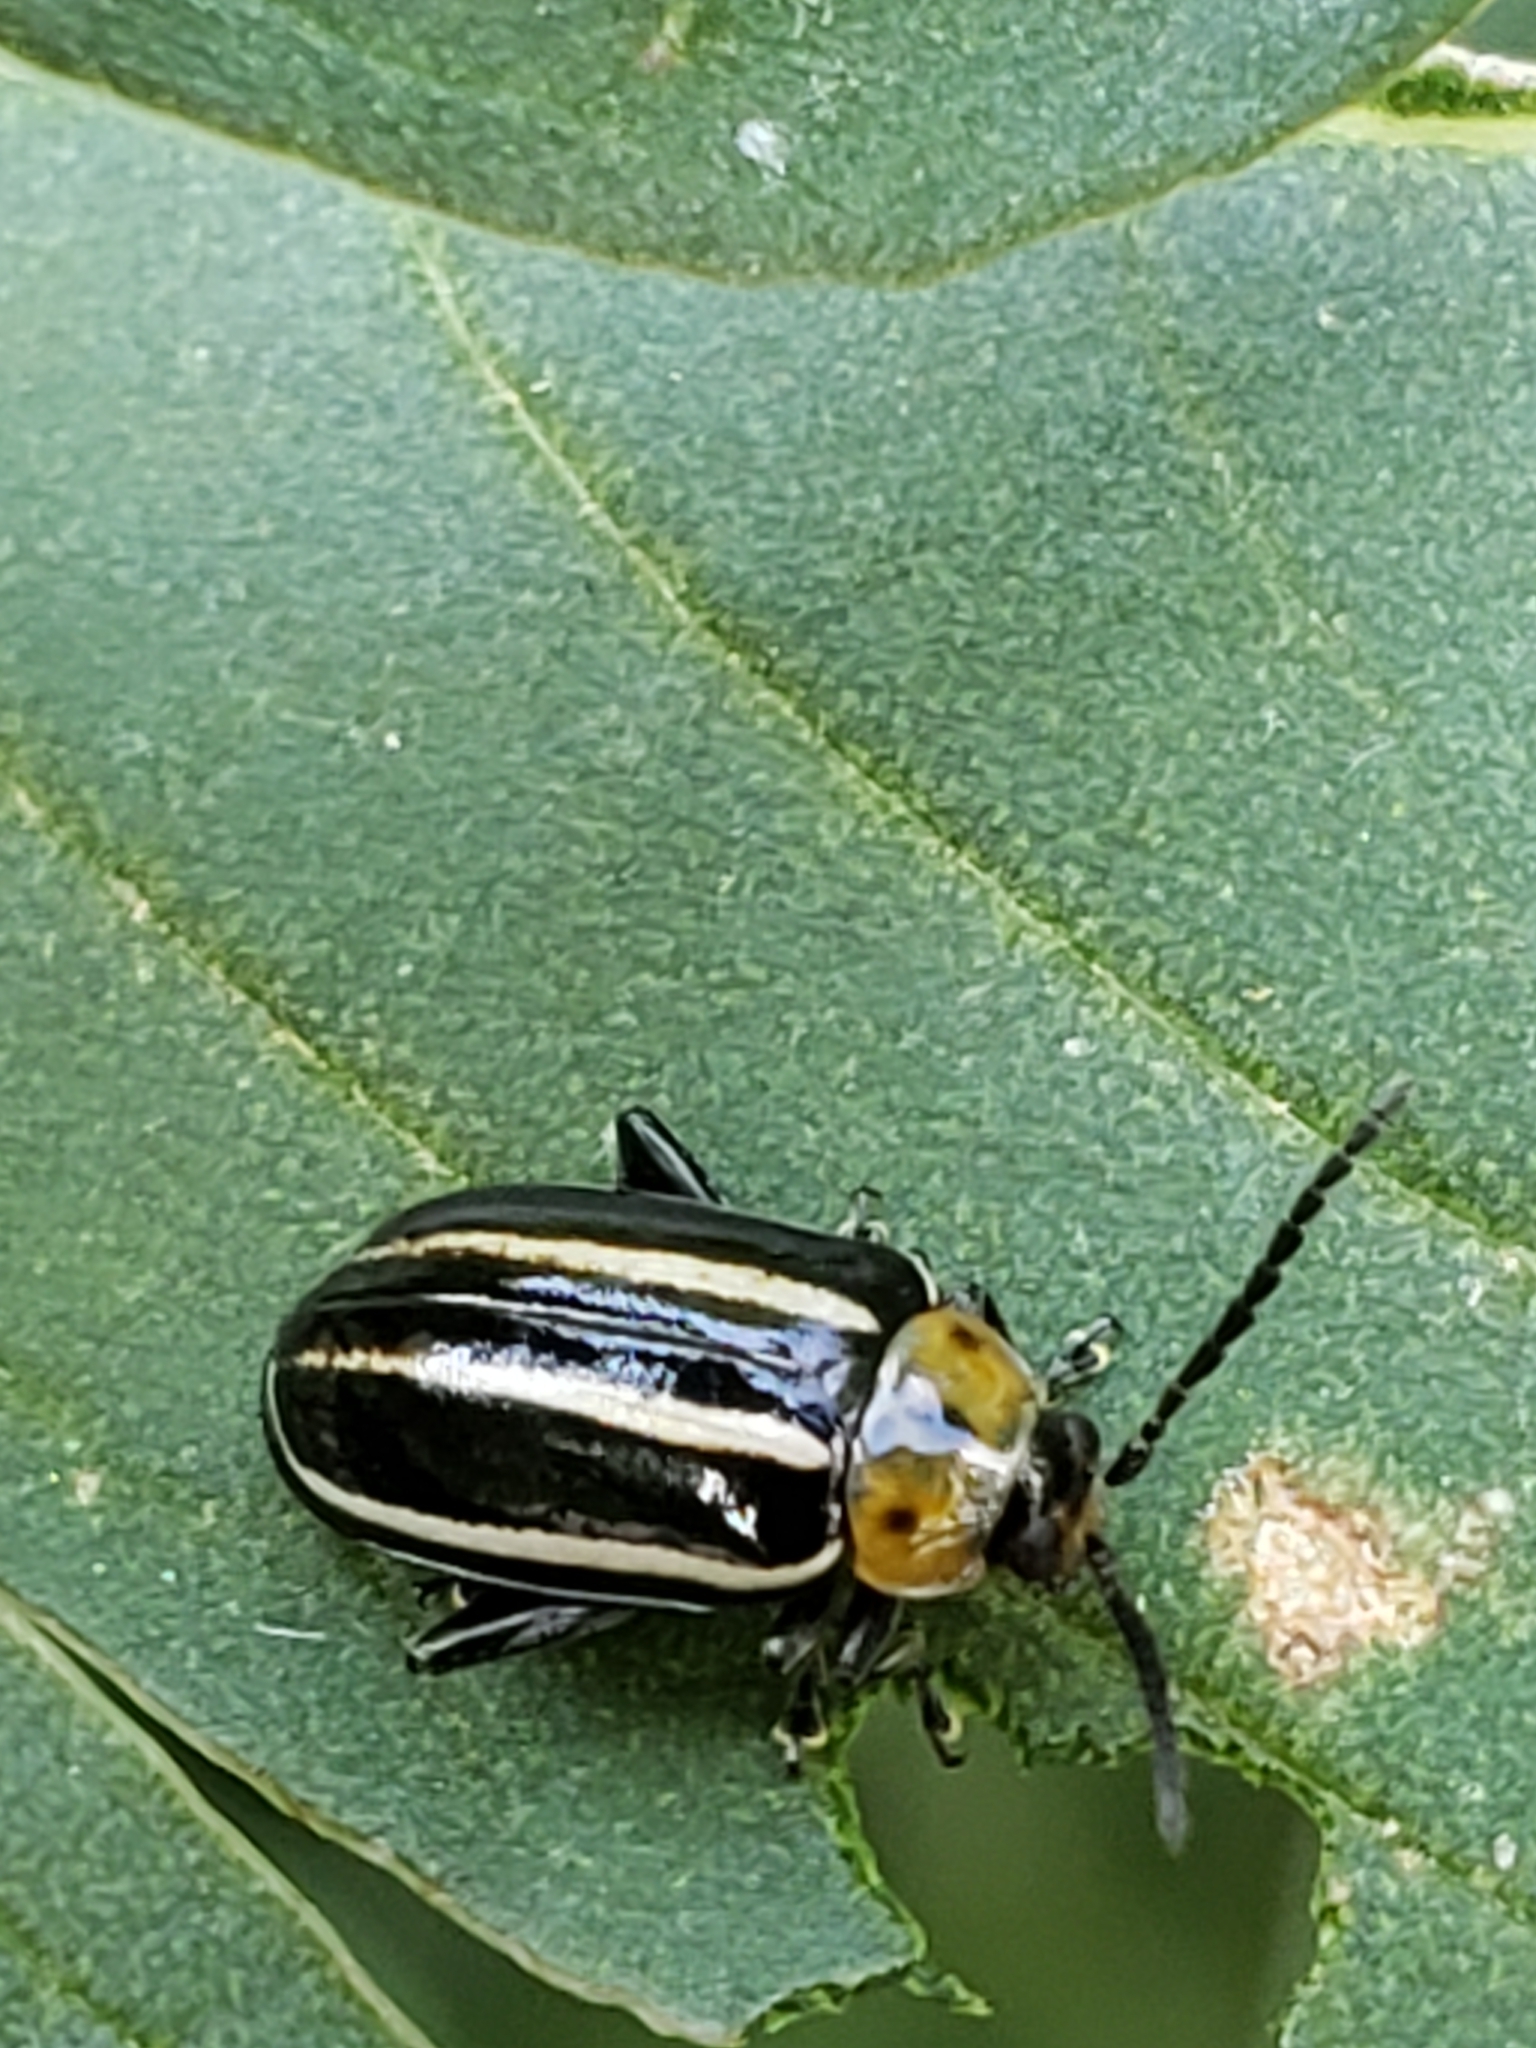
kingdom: Animalia
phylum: Arthropoda
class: Insecta
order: Coleoptera
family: Chrysomelidae
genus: Disonycha
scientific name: Disonycha glabrata
